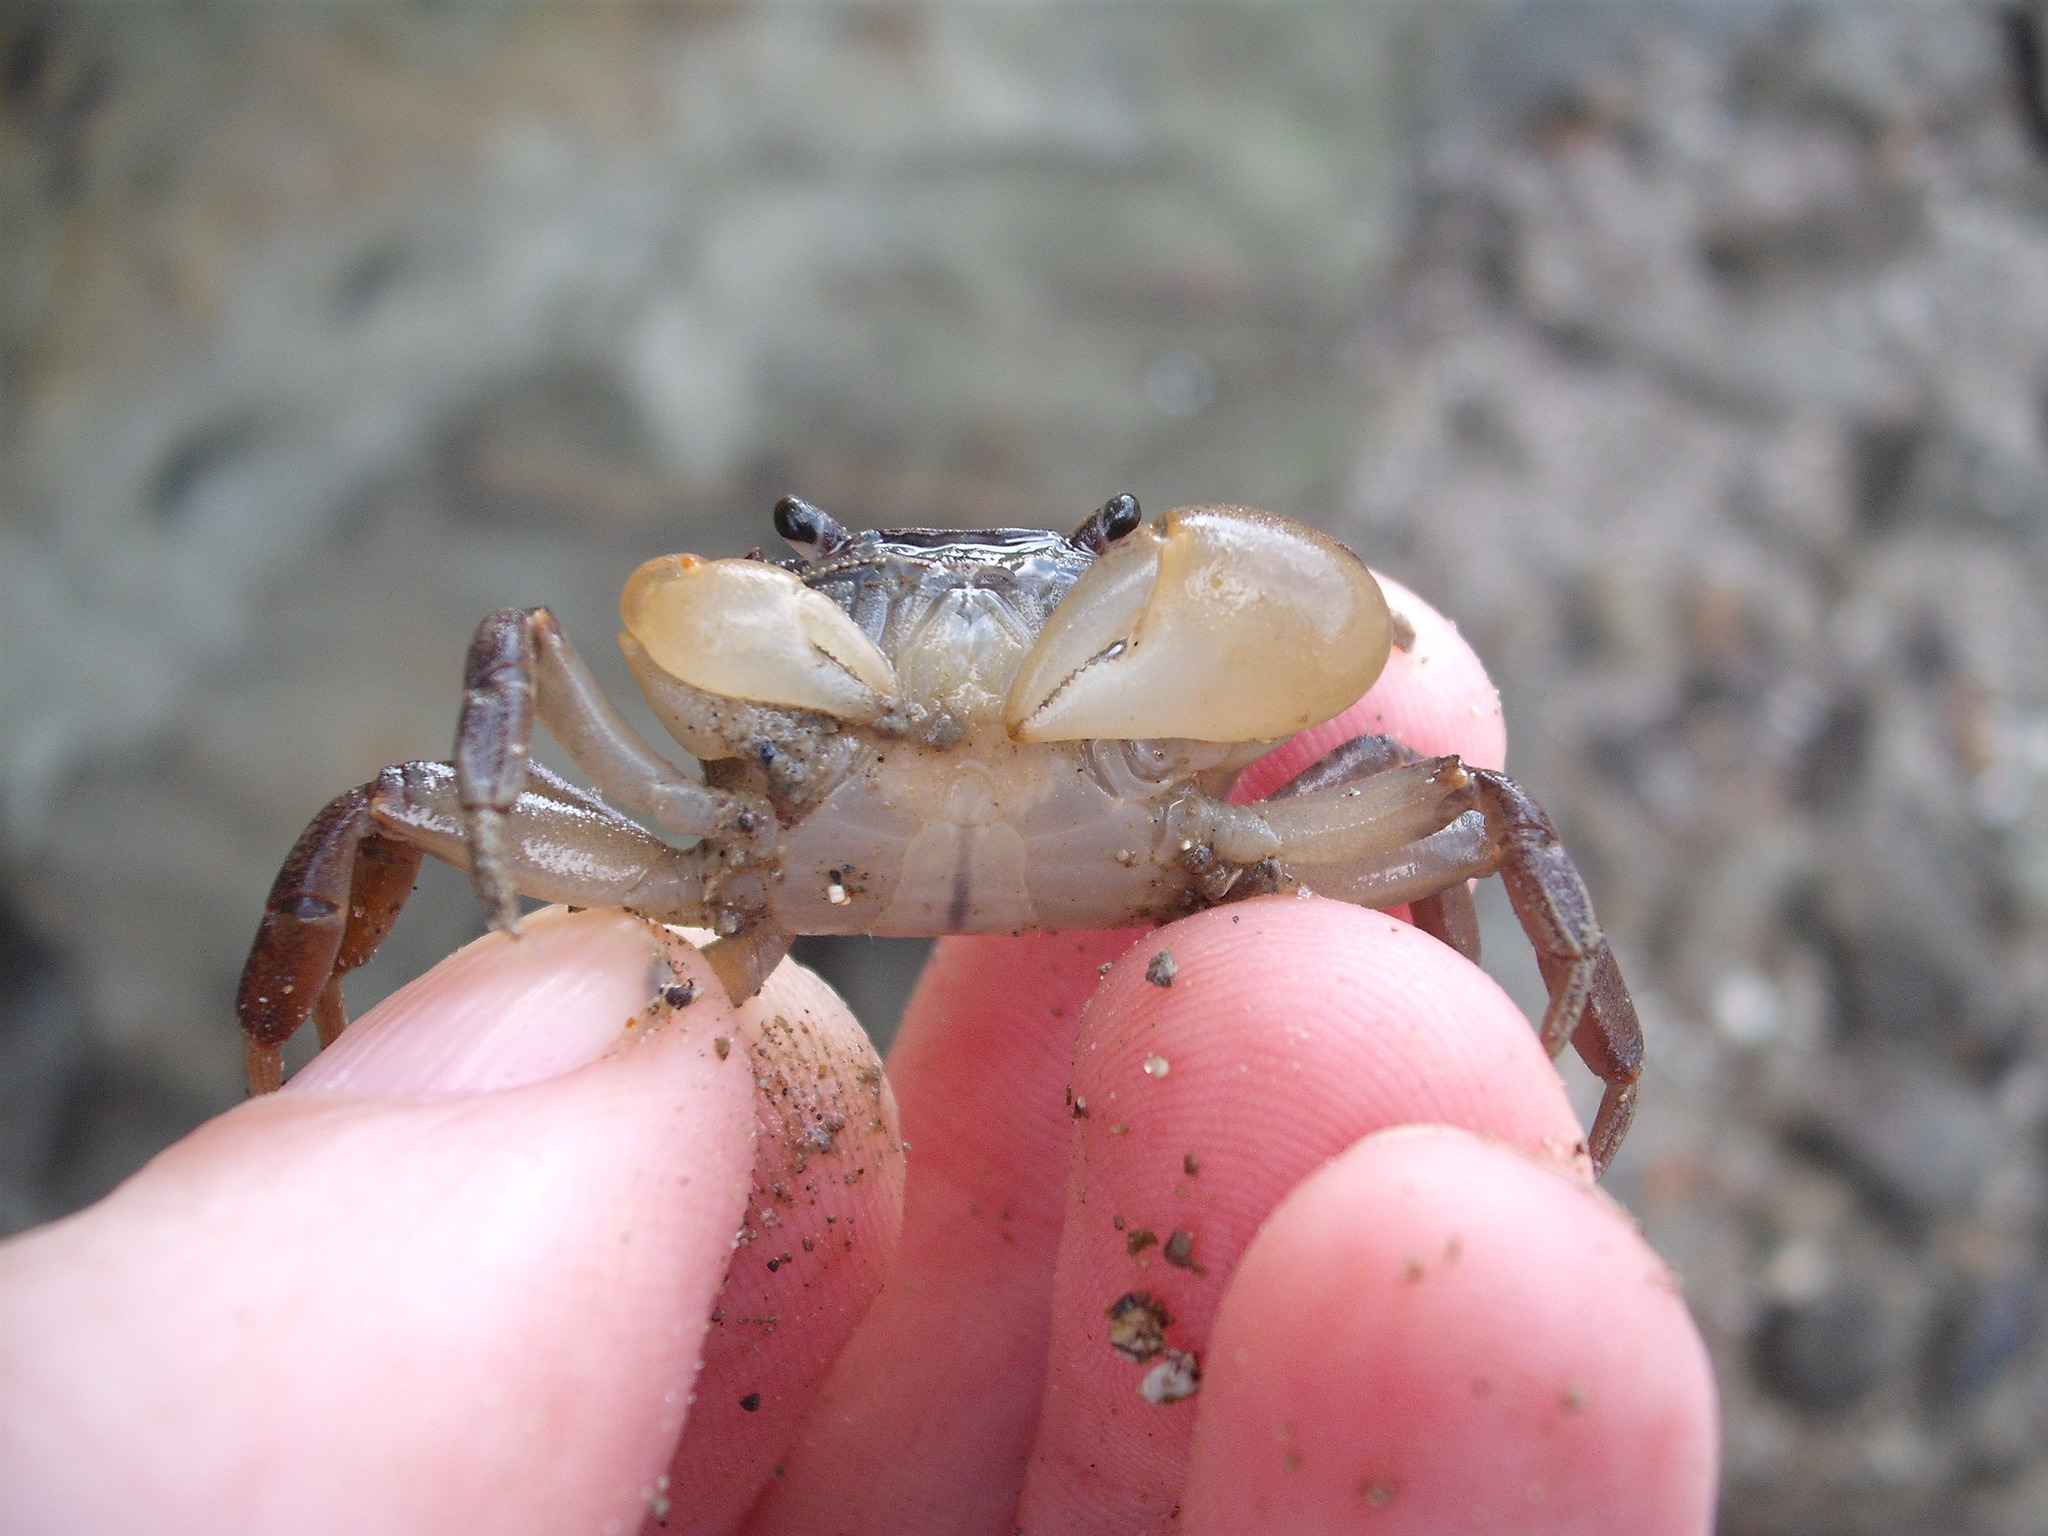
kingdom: Animalia
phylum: Arthropoda
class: Malacostraca
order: Decapoda
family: Varunidae
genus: Cyclograpsus
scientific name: Cyclograpsus lavauxi
